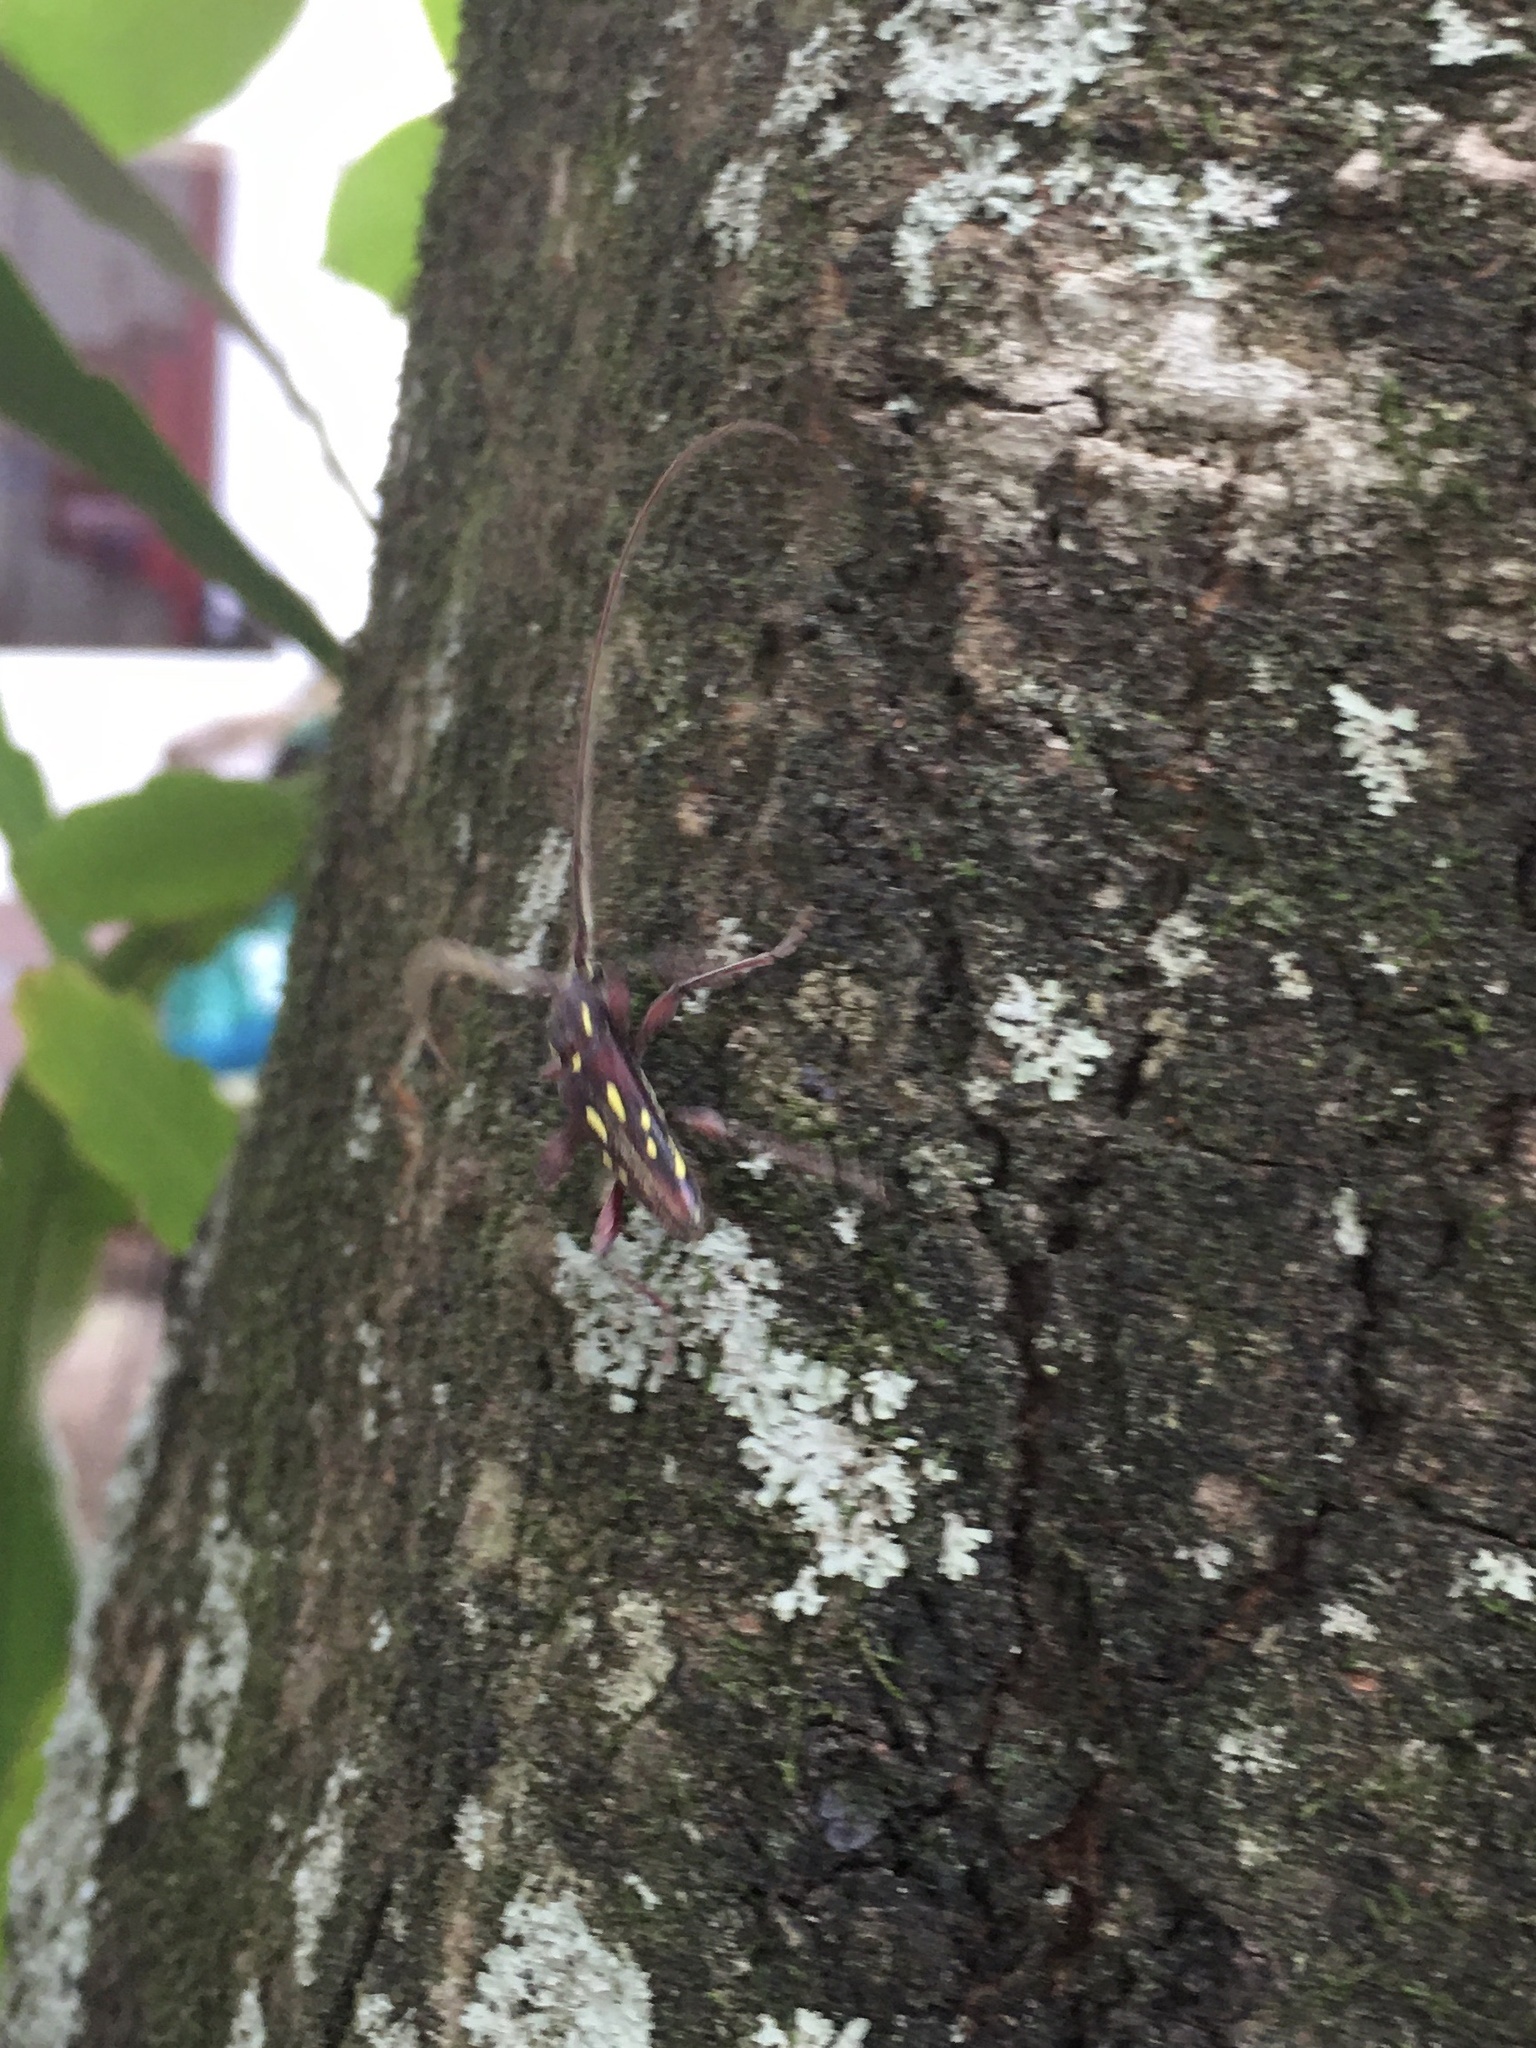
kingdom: Animalia
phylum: Arthropoda
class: Insecta
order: Coleoptera
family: Cerambycidae
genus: Ambonus
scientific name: Ambonus distinctus
